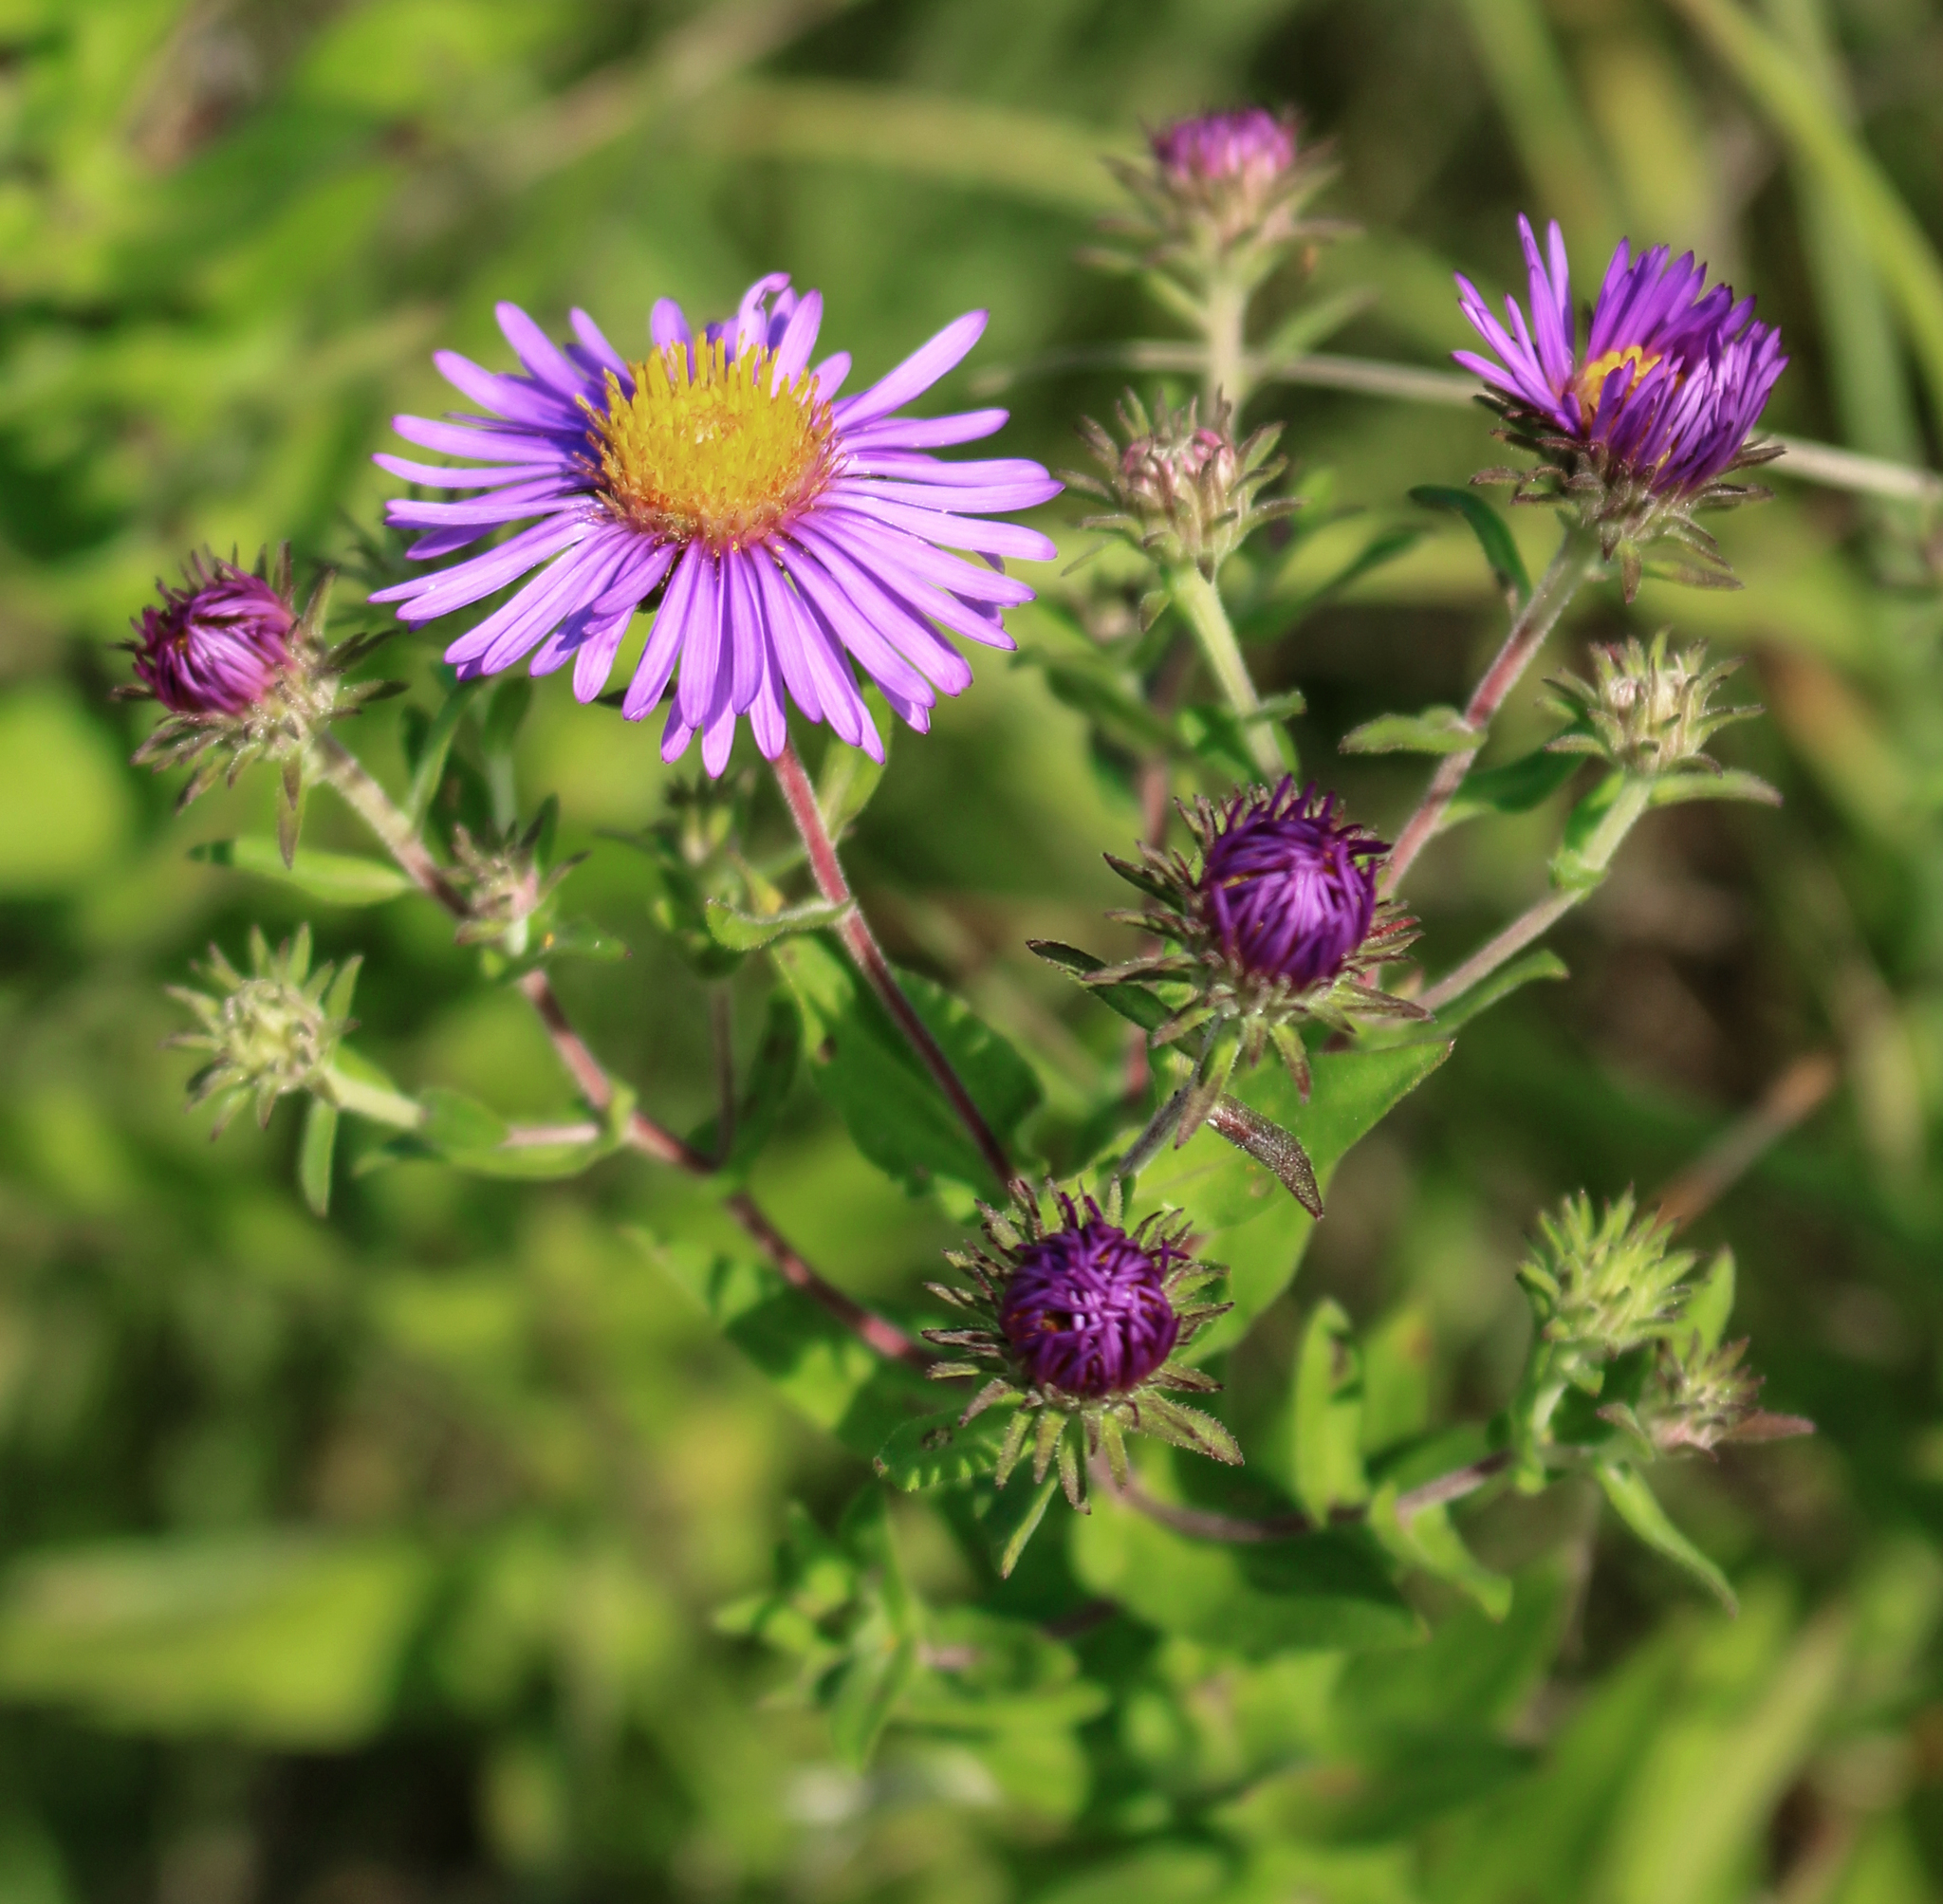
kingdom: Plantae
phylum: Tracheophyta
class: Magnoliopsida
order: Asterales
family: Asteraceae
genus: Symphyotrichum
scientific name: Symphyotrichum novae-angliae
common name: Michaelmas daisy
